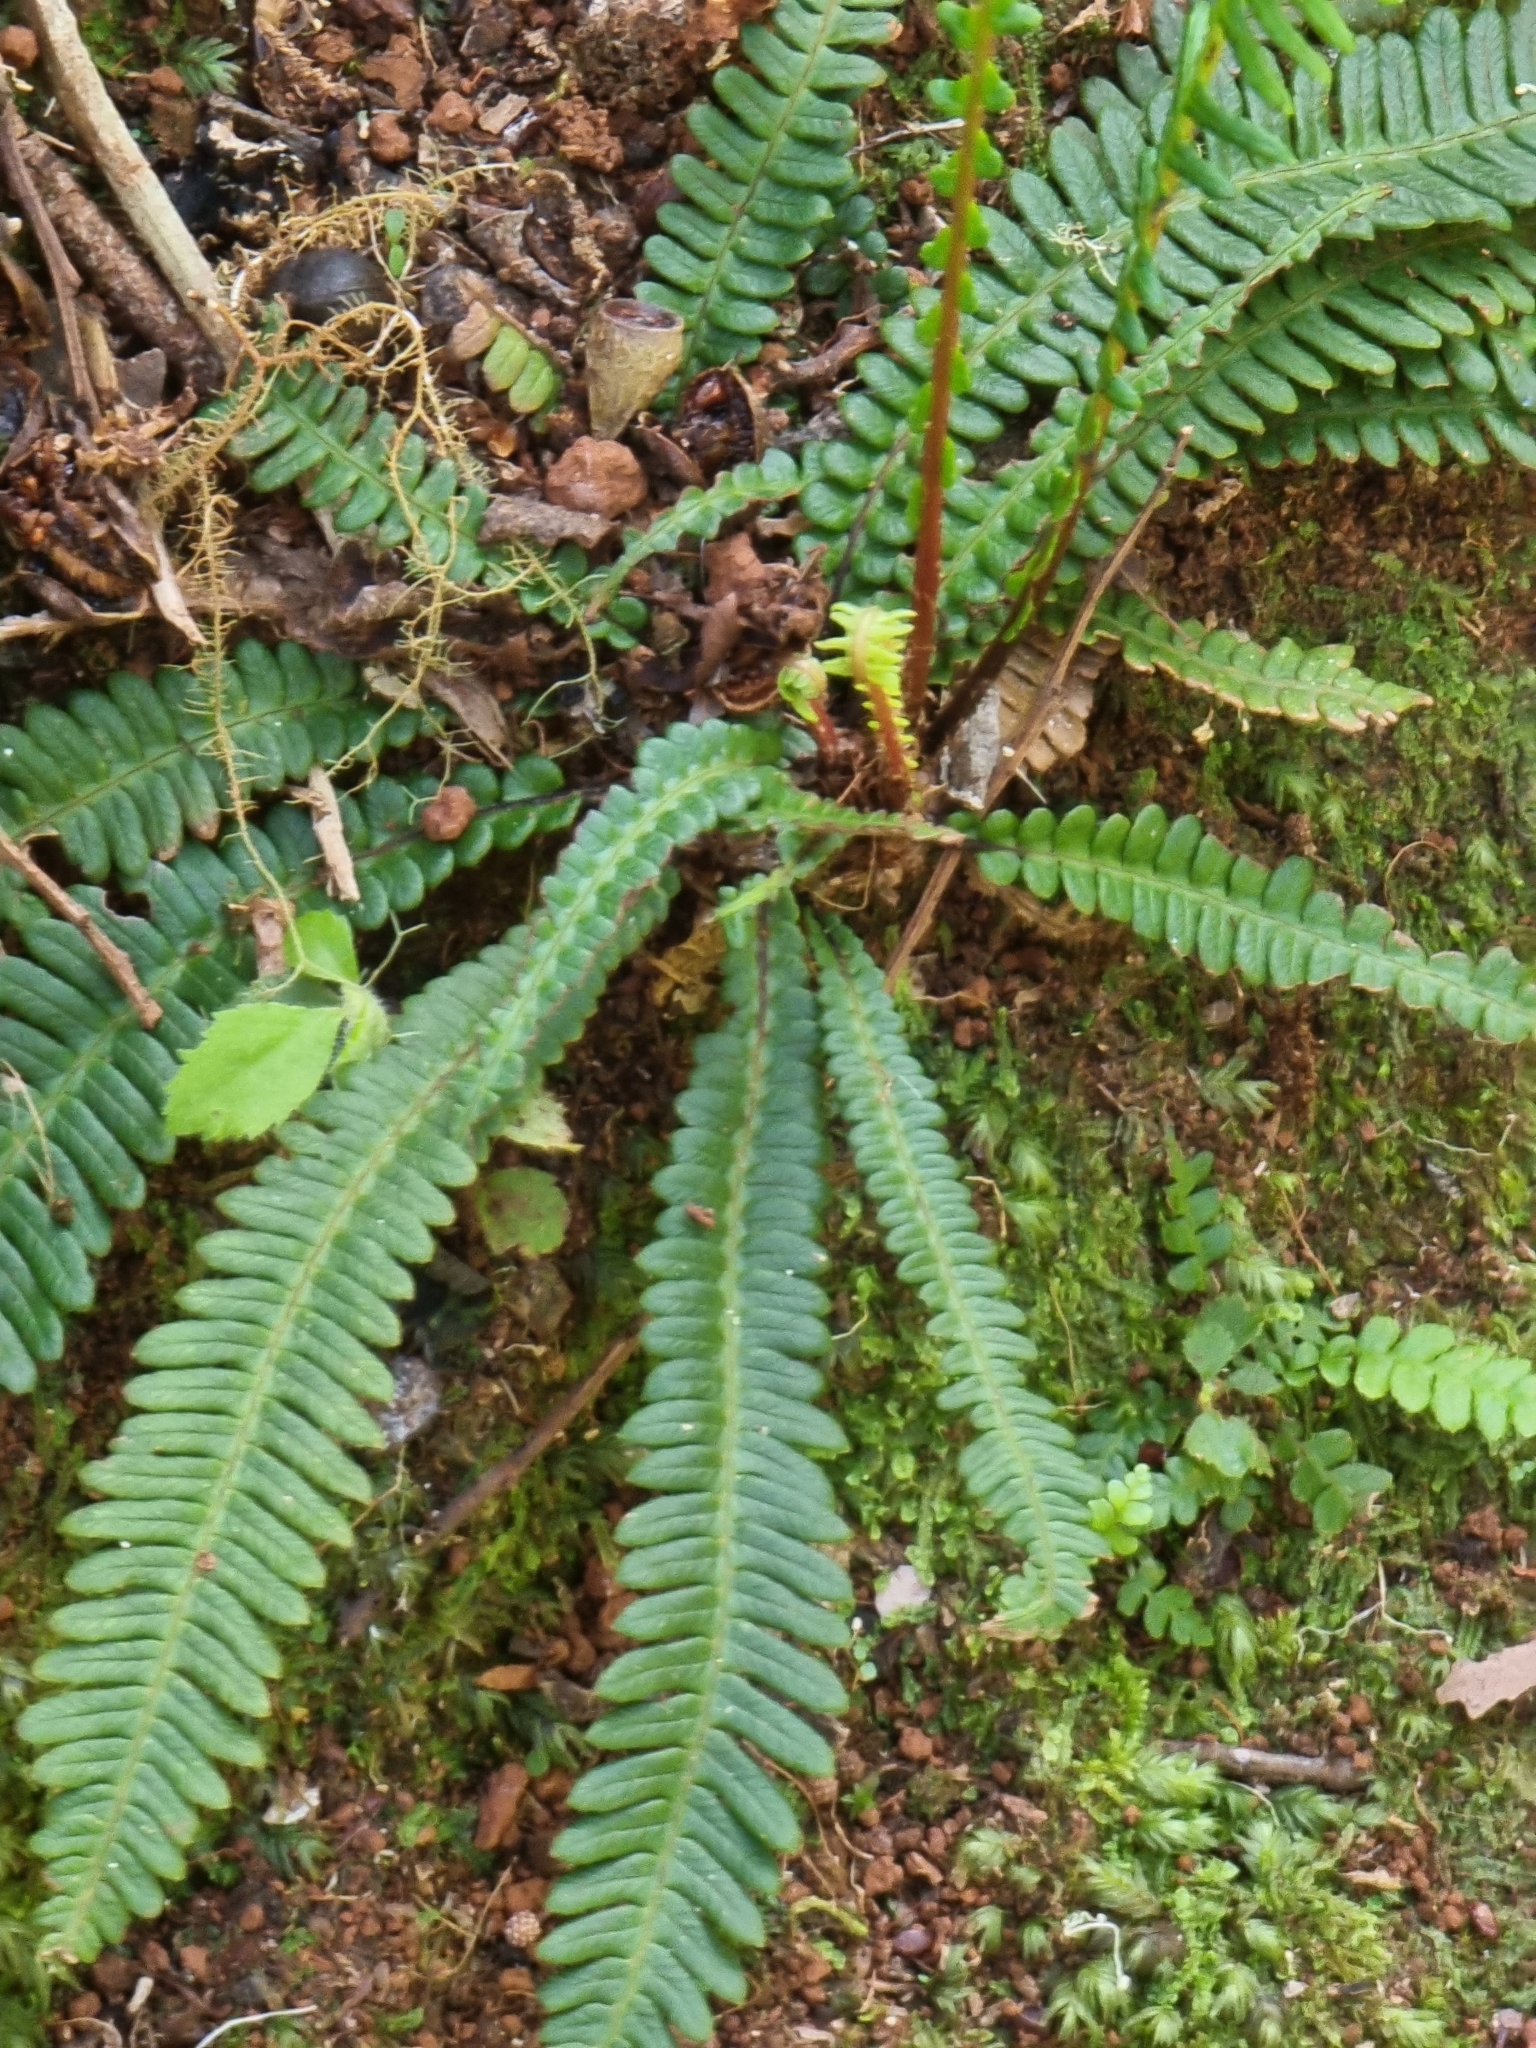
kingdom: Plantae
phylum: Tracheophyta
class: Polypodiopsida
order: Polypodiales
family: Blechnaceae
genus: Struthiopteris
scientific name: Struthiopteris spicant
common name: Deer fern
